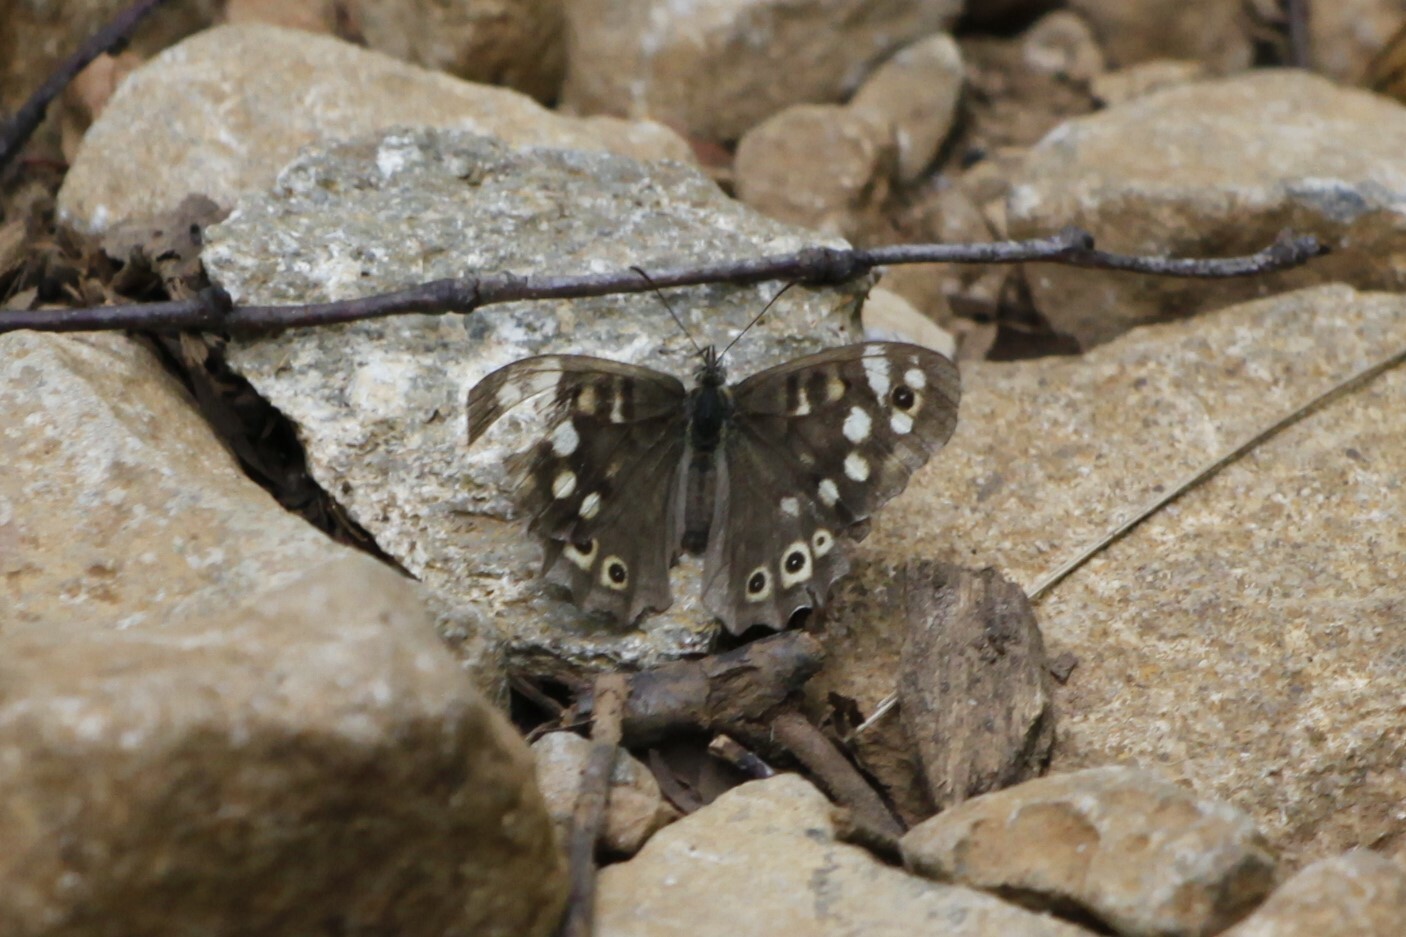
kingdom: Animalia
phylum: Arthropoda
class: Insecta
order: Lepidoptera
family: Nymphalidae
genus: Pararge
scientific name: Pararge aegeria
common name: Speckled wood
